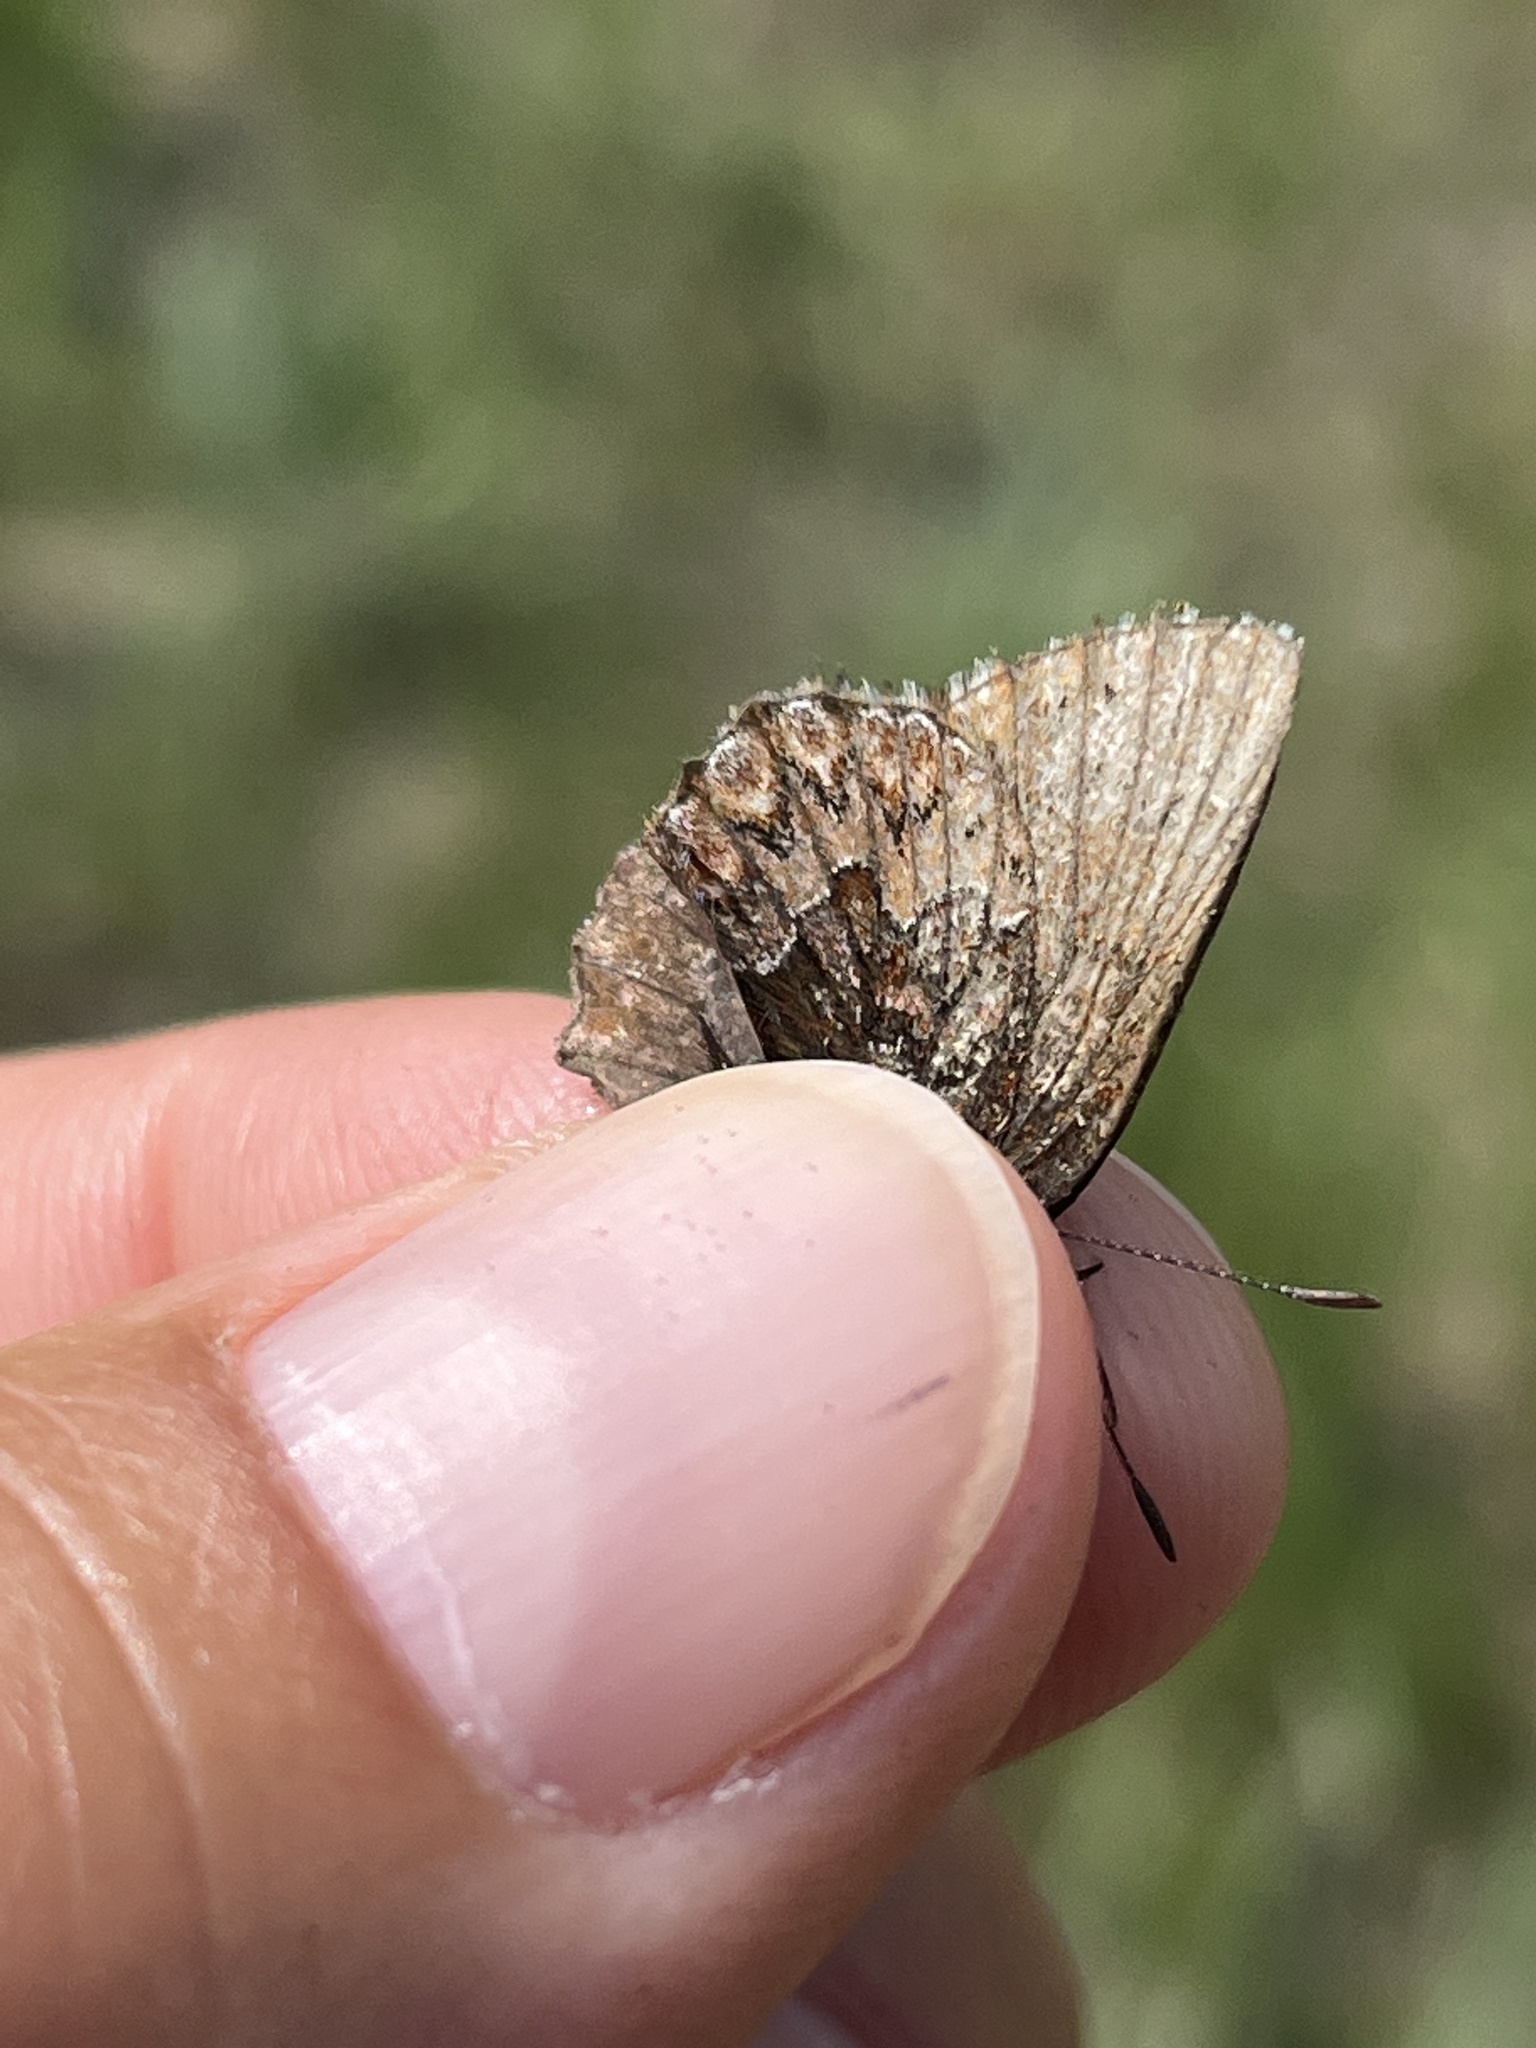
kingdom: Animalia
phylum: Arthropoda
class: Insecta
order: Lepidoptera
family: Lycaenidae
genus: Incisalia
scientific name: Incisalia eryphon
